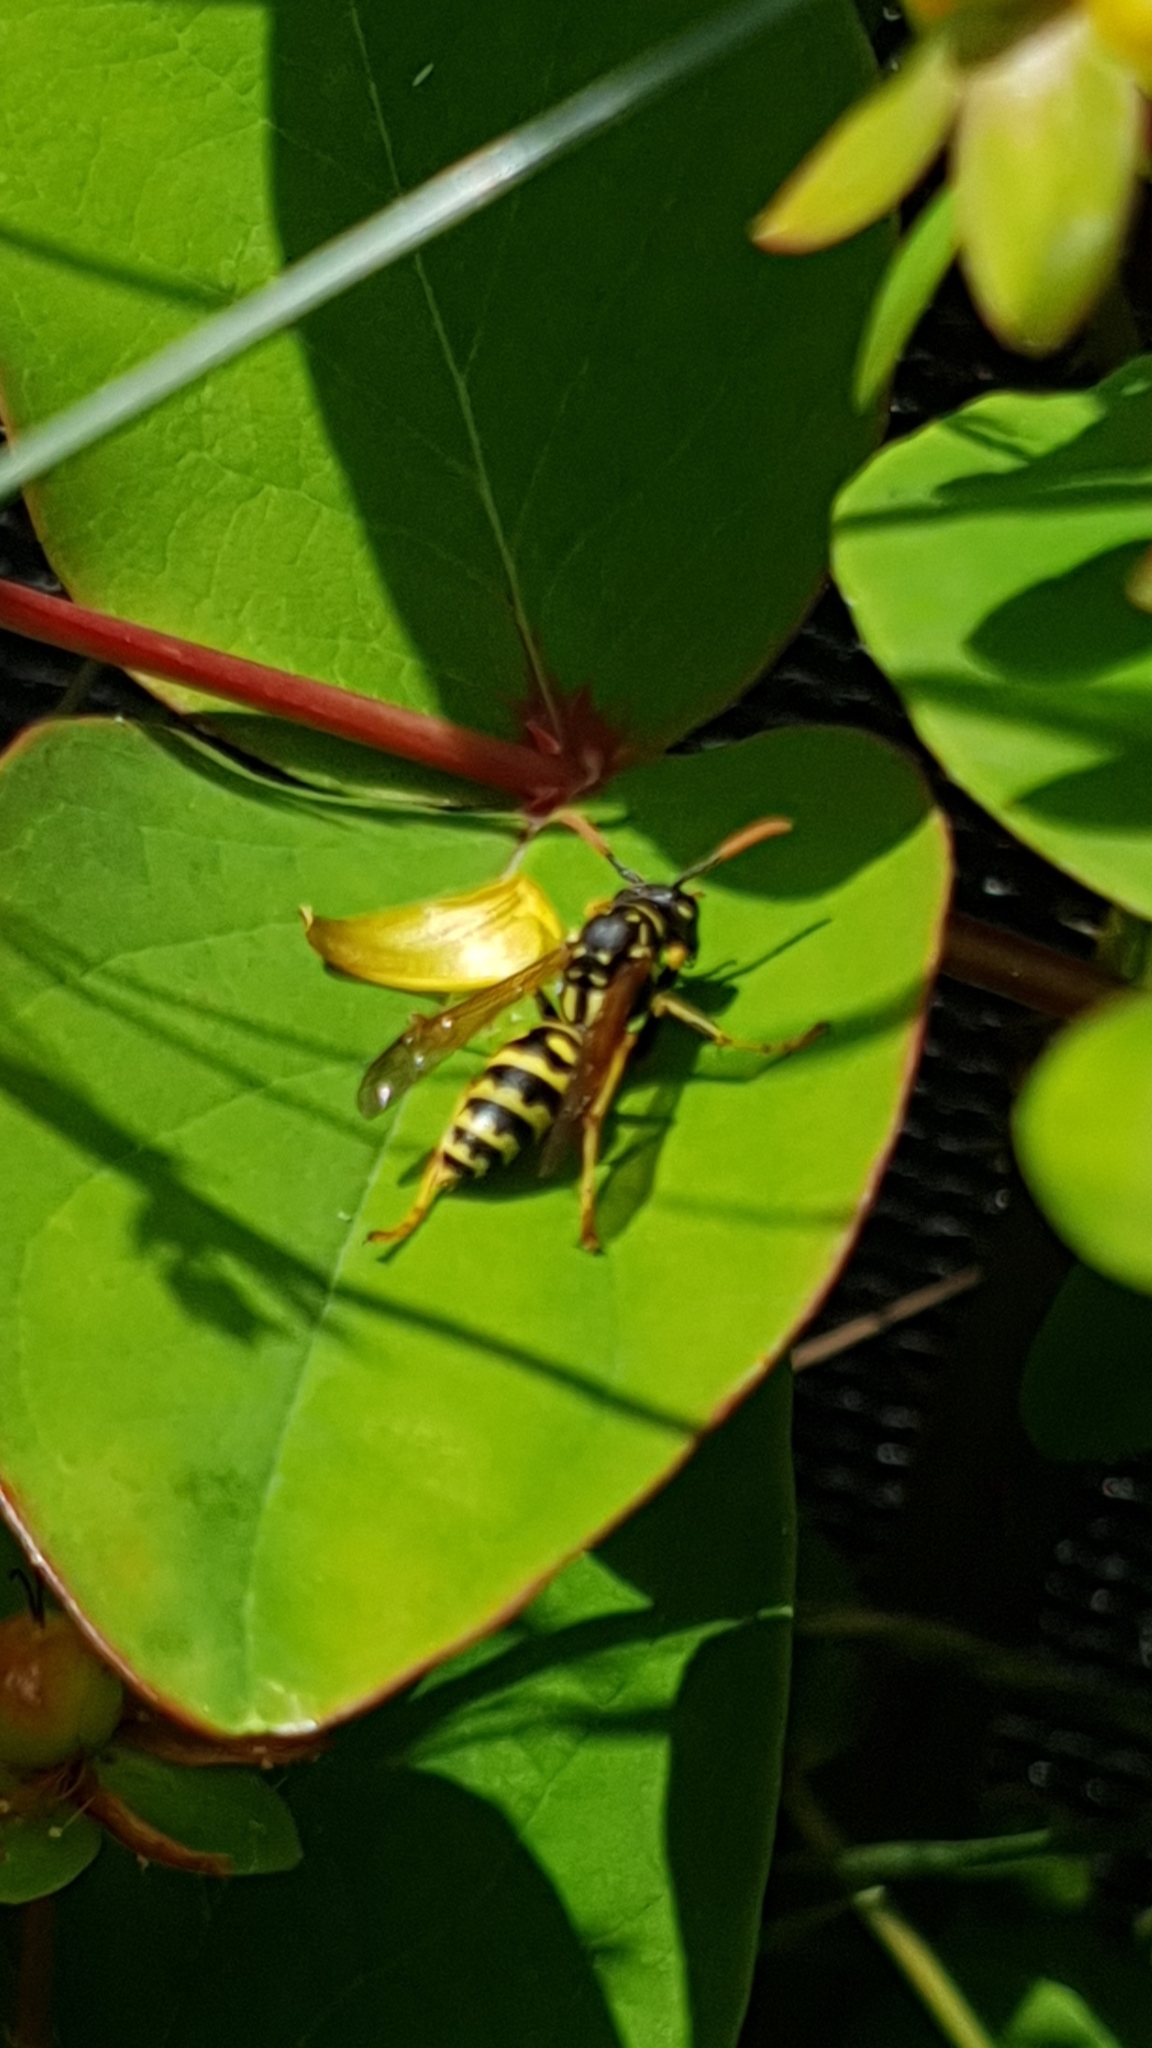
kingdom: Animalia
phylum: Arthropoda
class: Insecta
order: Hymenoptera
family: Eumenidae
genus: Polistes
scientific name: Polistes dominula
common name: Paper wasp
